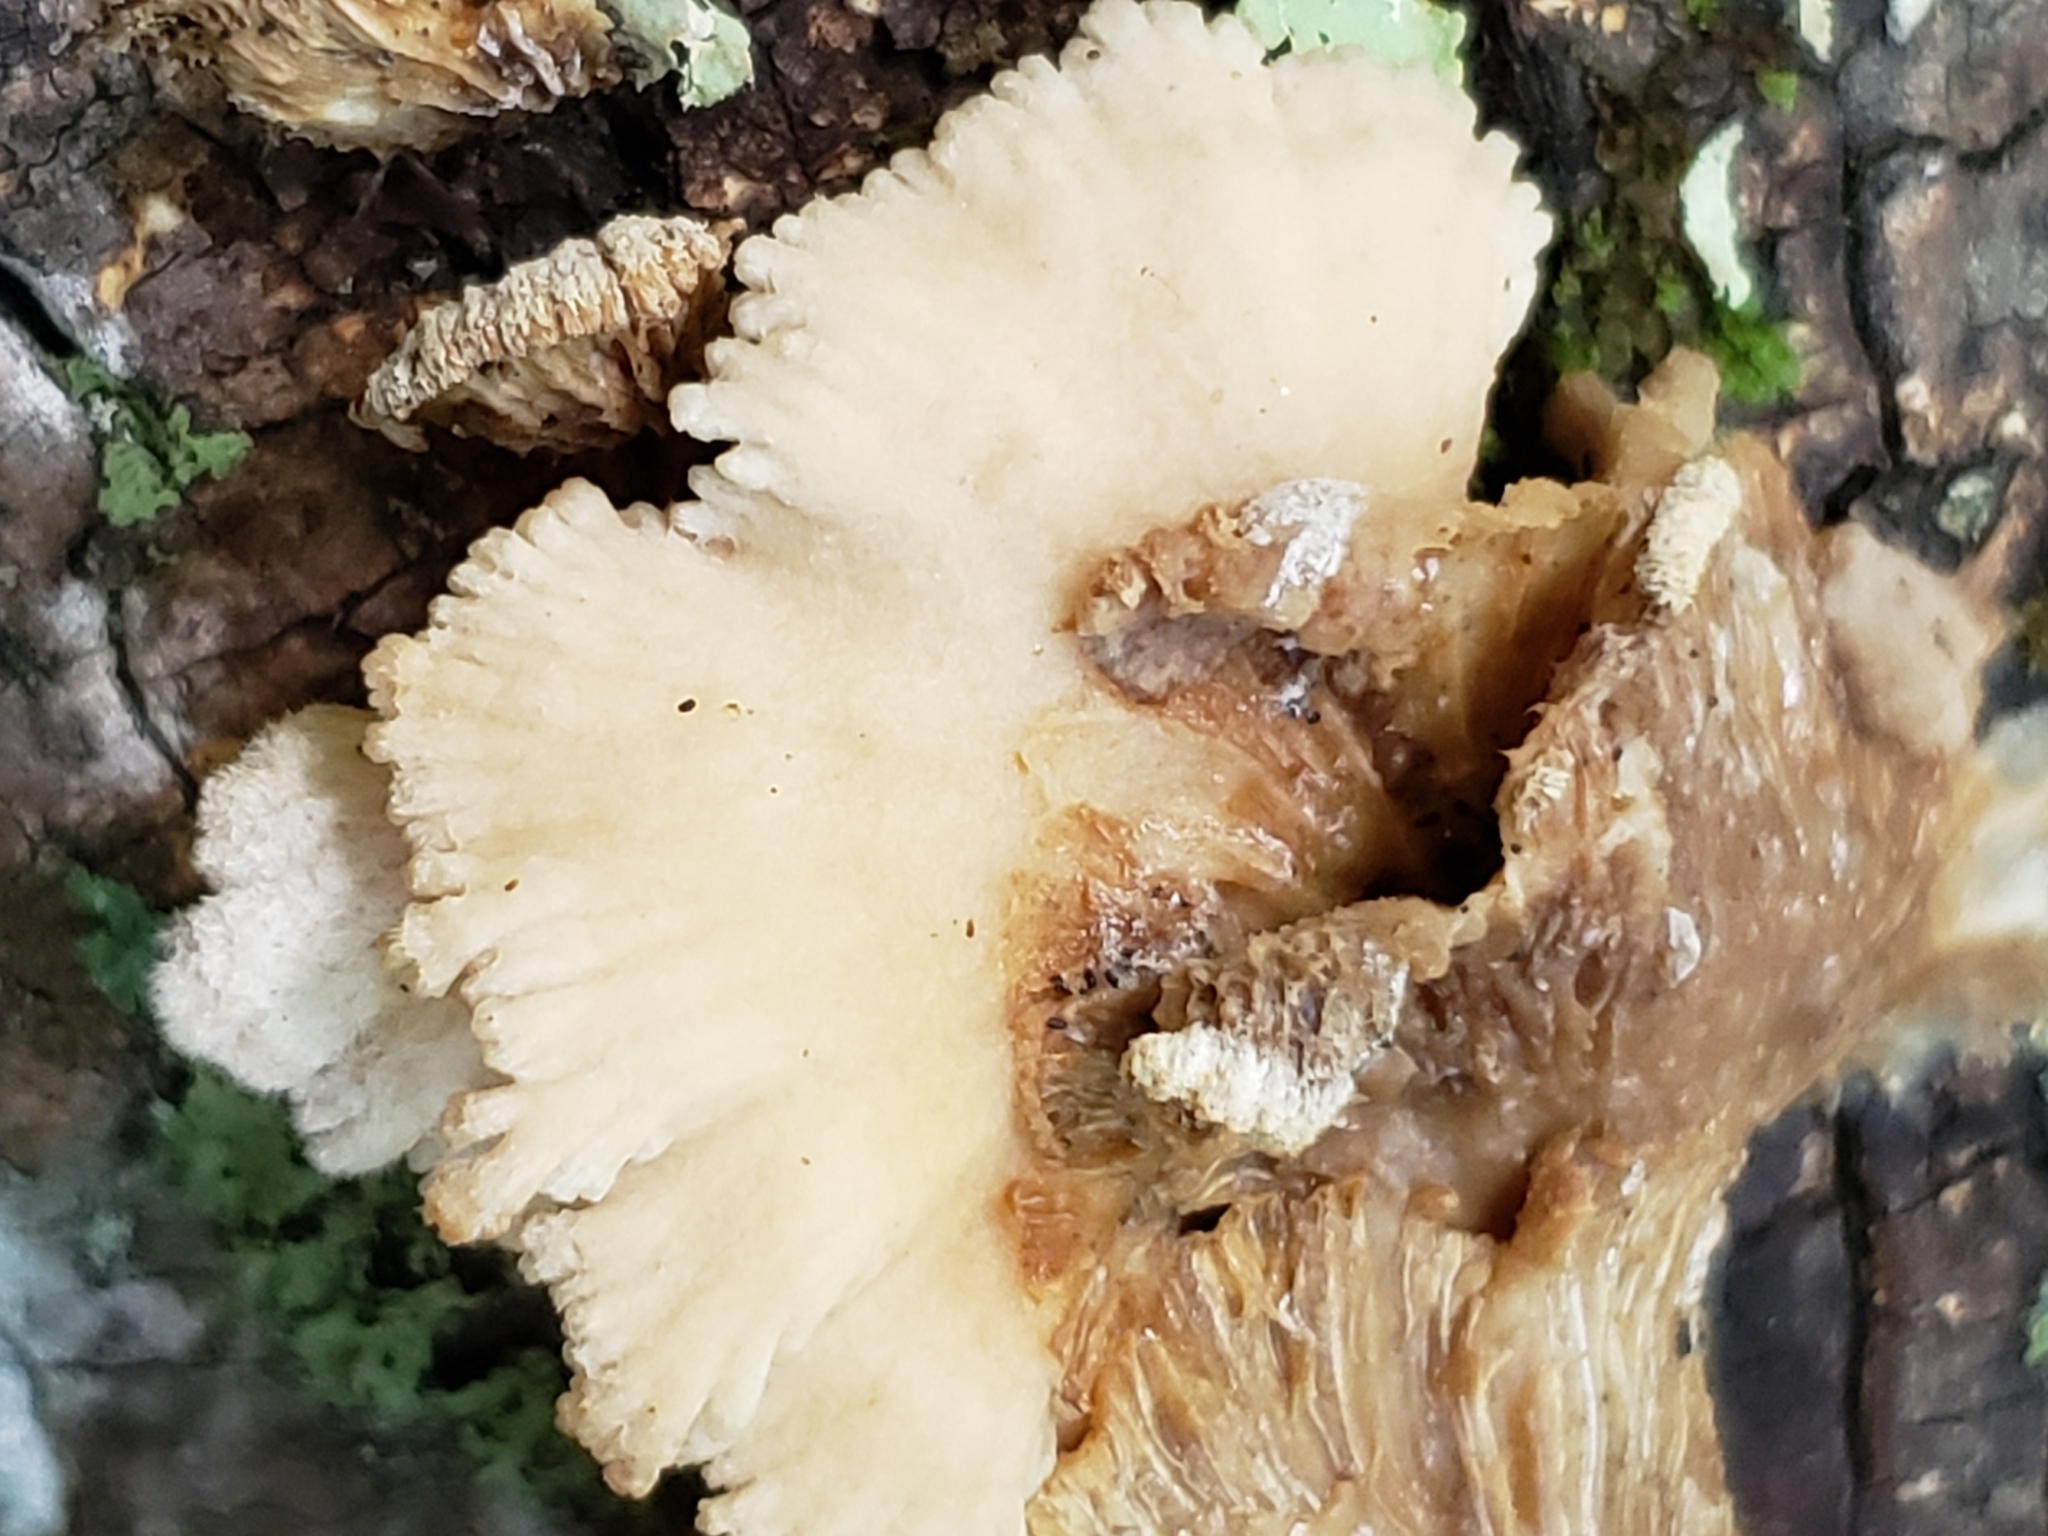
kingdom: Fungi
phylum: Basidiomycota
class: Agaricomycetes
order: Agaricales
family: Schizophyllaceae
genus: Schizophyllum
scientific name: Schizophyllum commune
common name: Common porecrust
